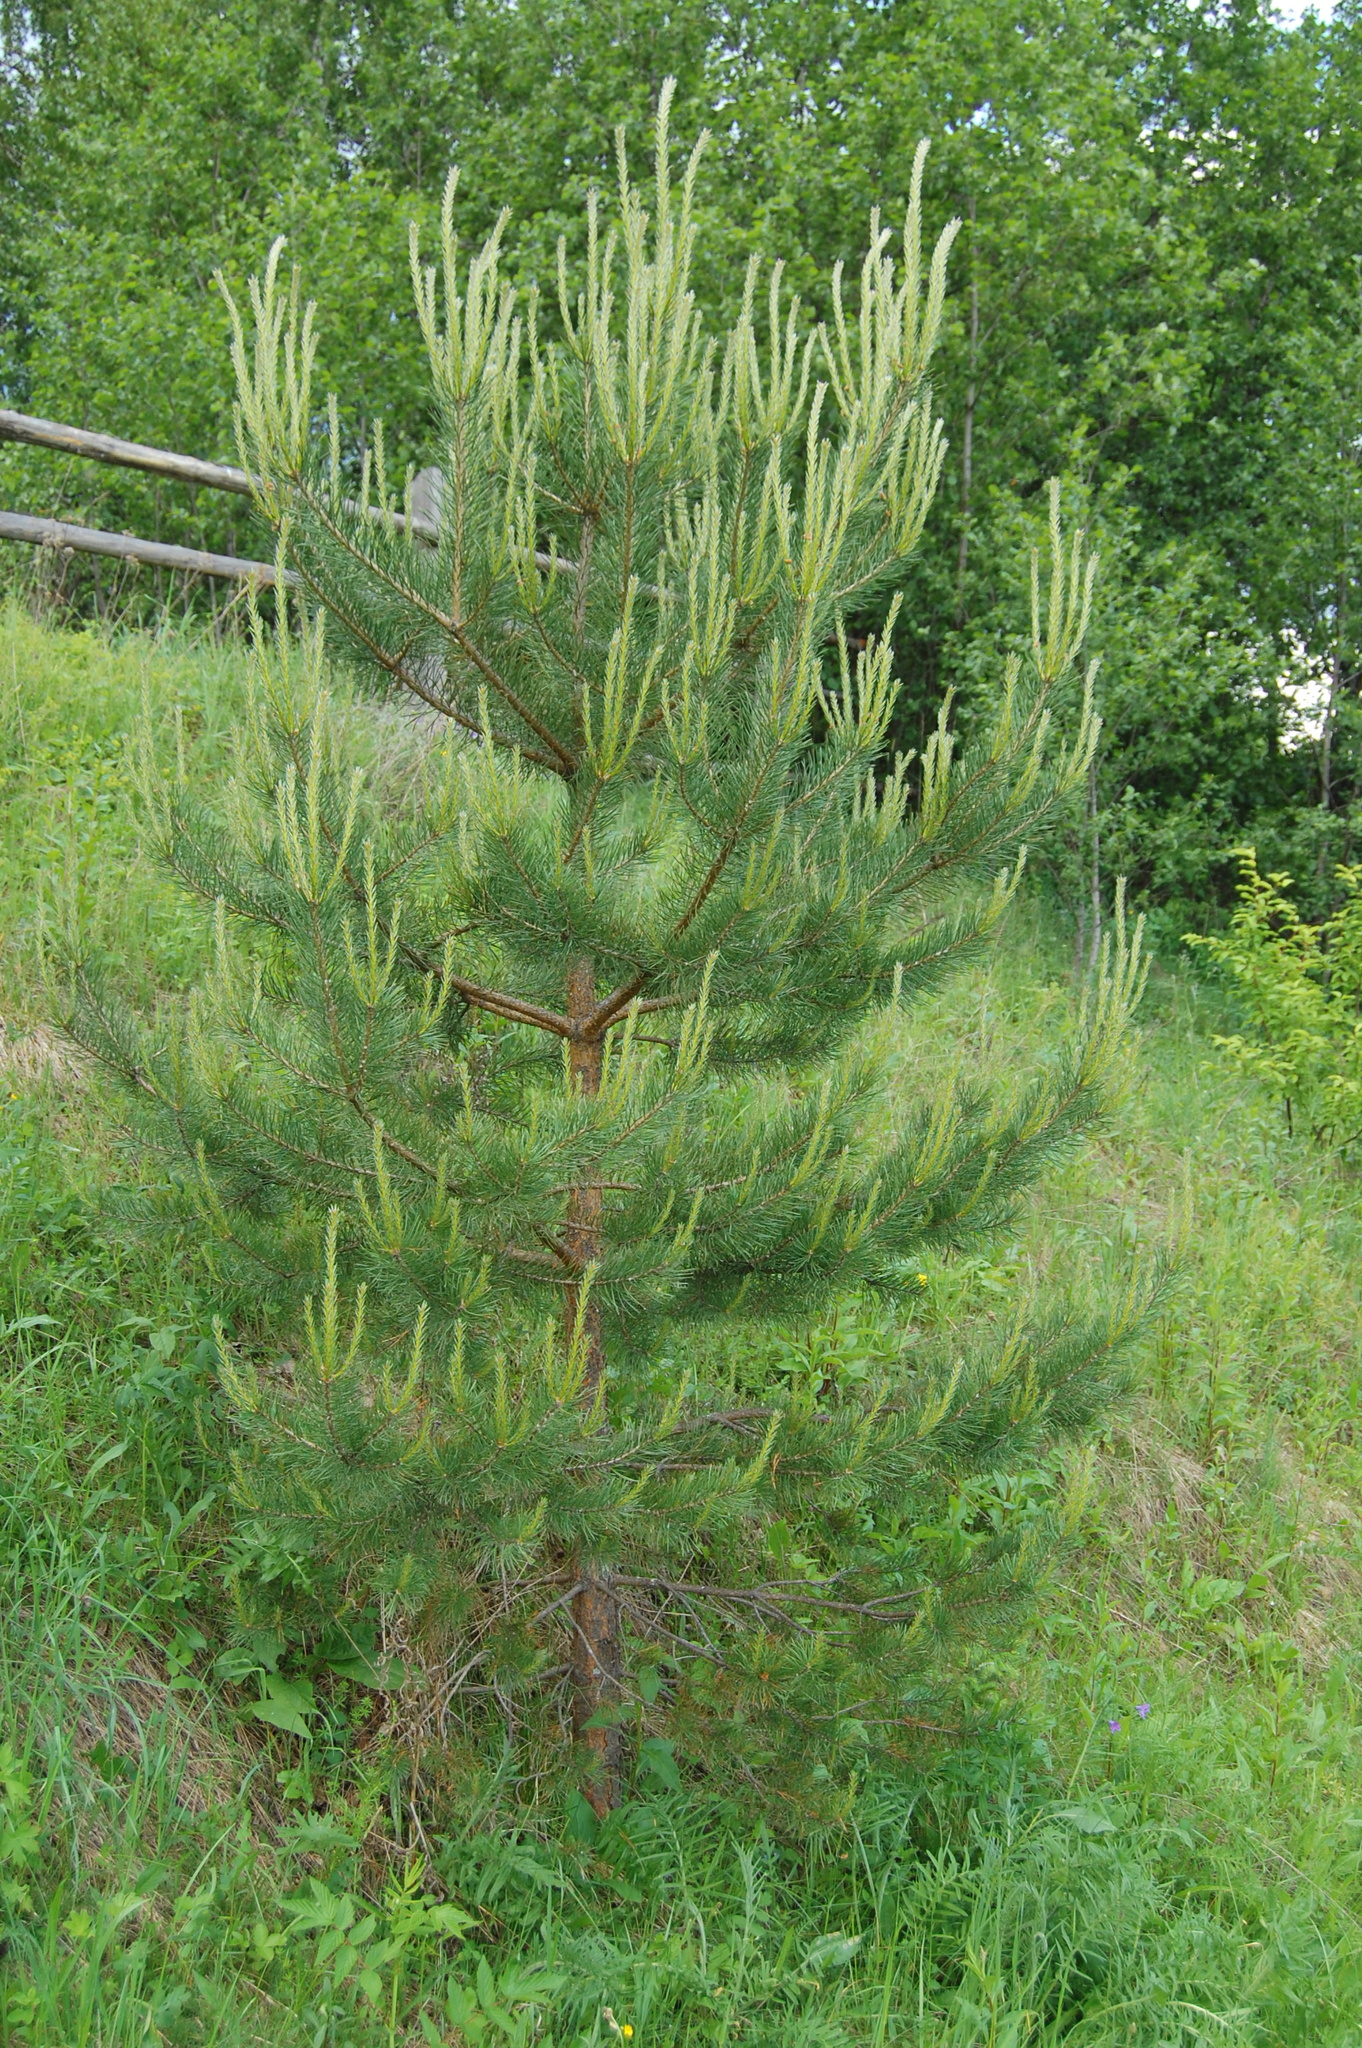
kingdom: Plantae
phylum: Tracheophyta
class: Pinopsida
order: Pinales
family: Pinaceae
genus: Pinus
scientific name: Pinus sylvestris
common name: Scots pine
